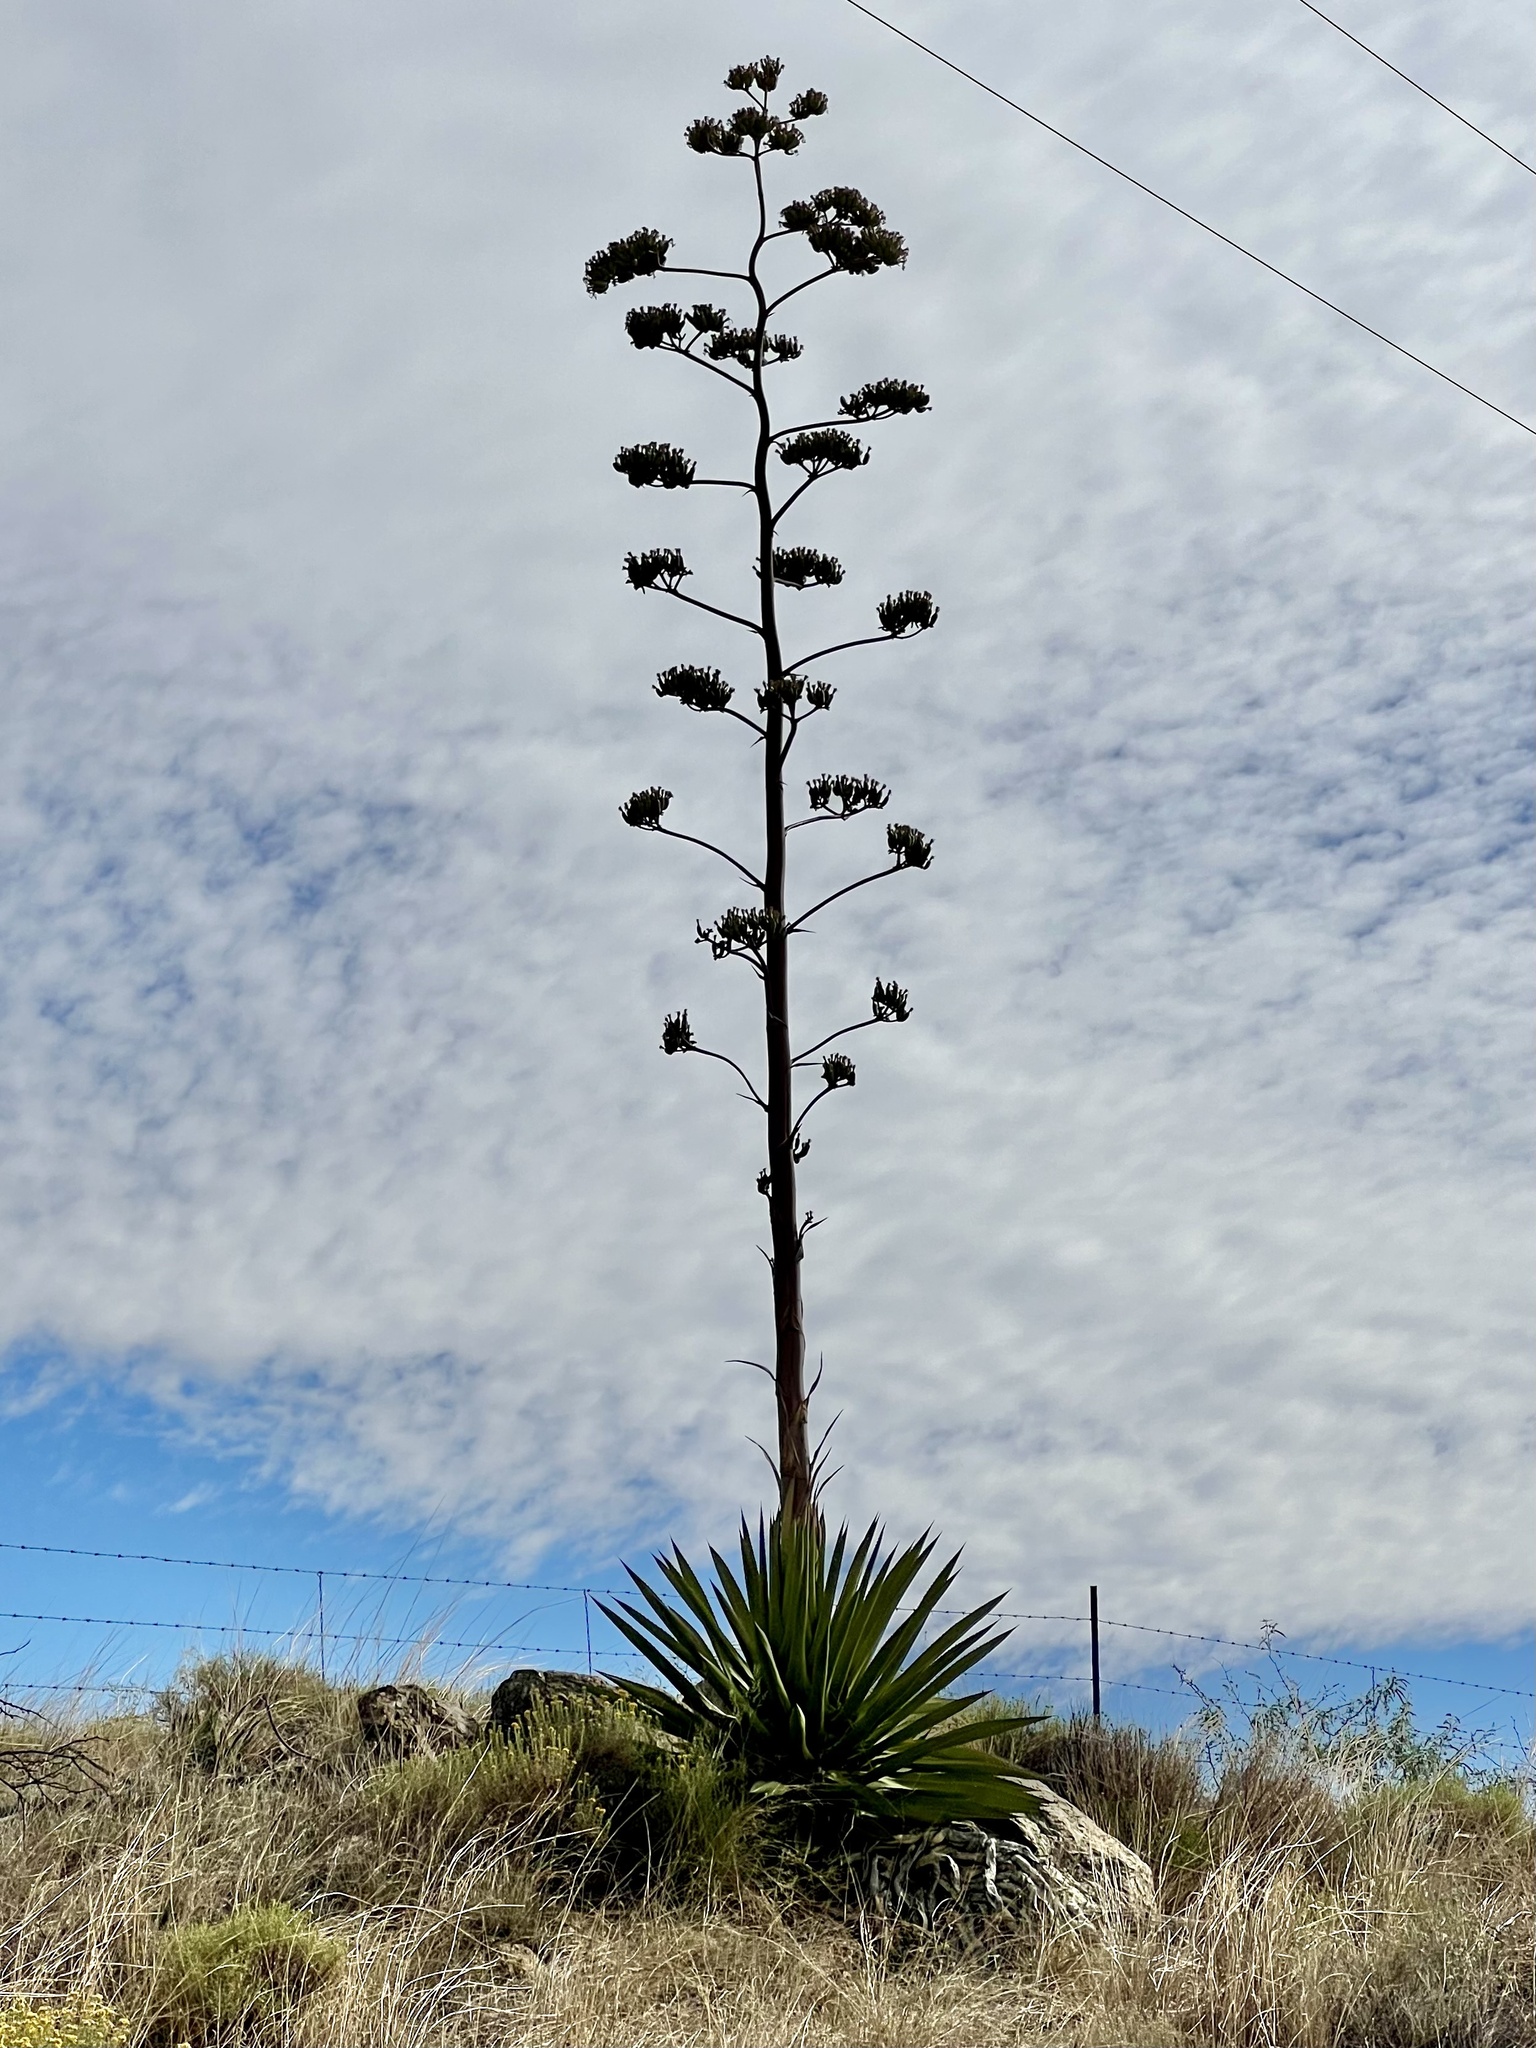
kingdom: Plantae
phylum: Tracheophyta
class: Liliopsida
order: Asparagales
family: Asparagaceae
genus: Agave
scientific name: Agave palmeri
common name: Palmer agave
